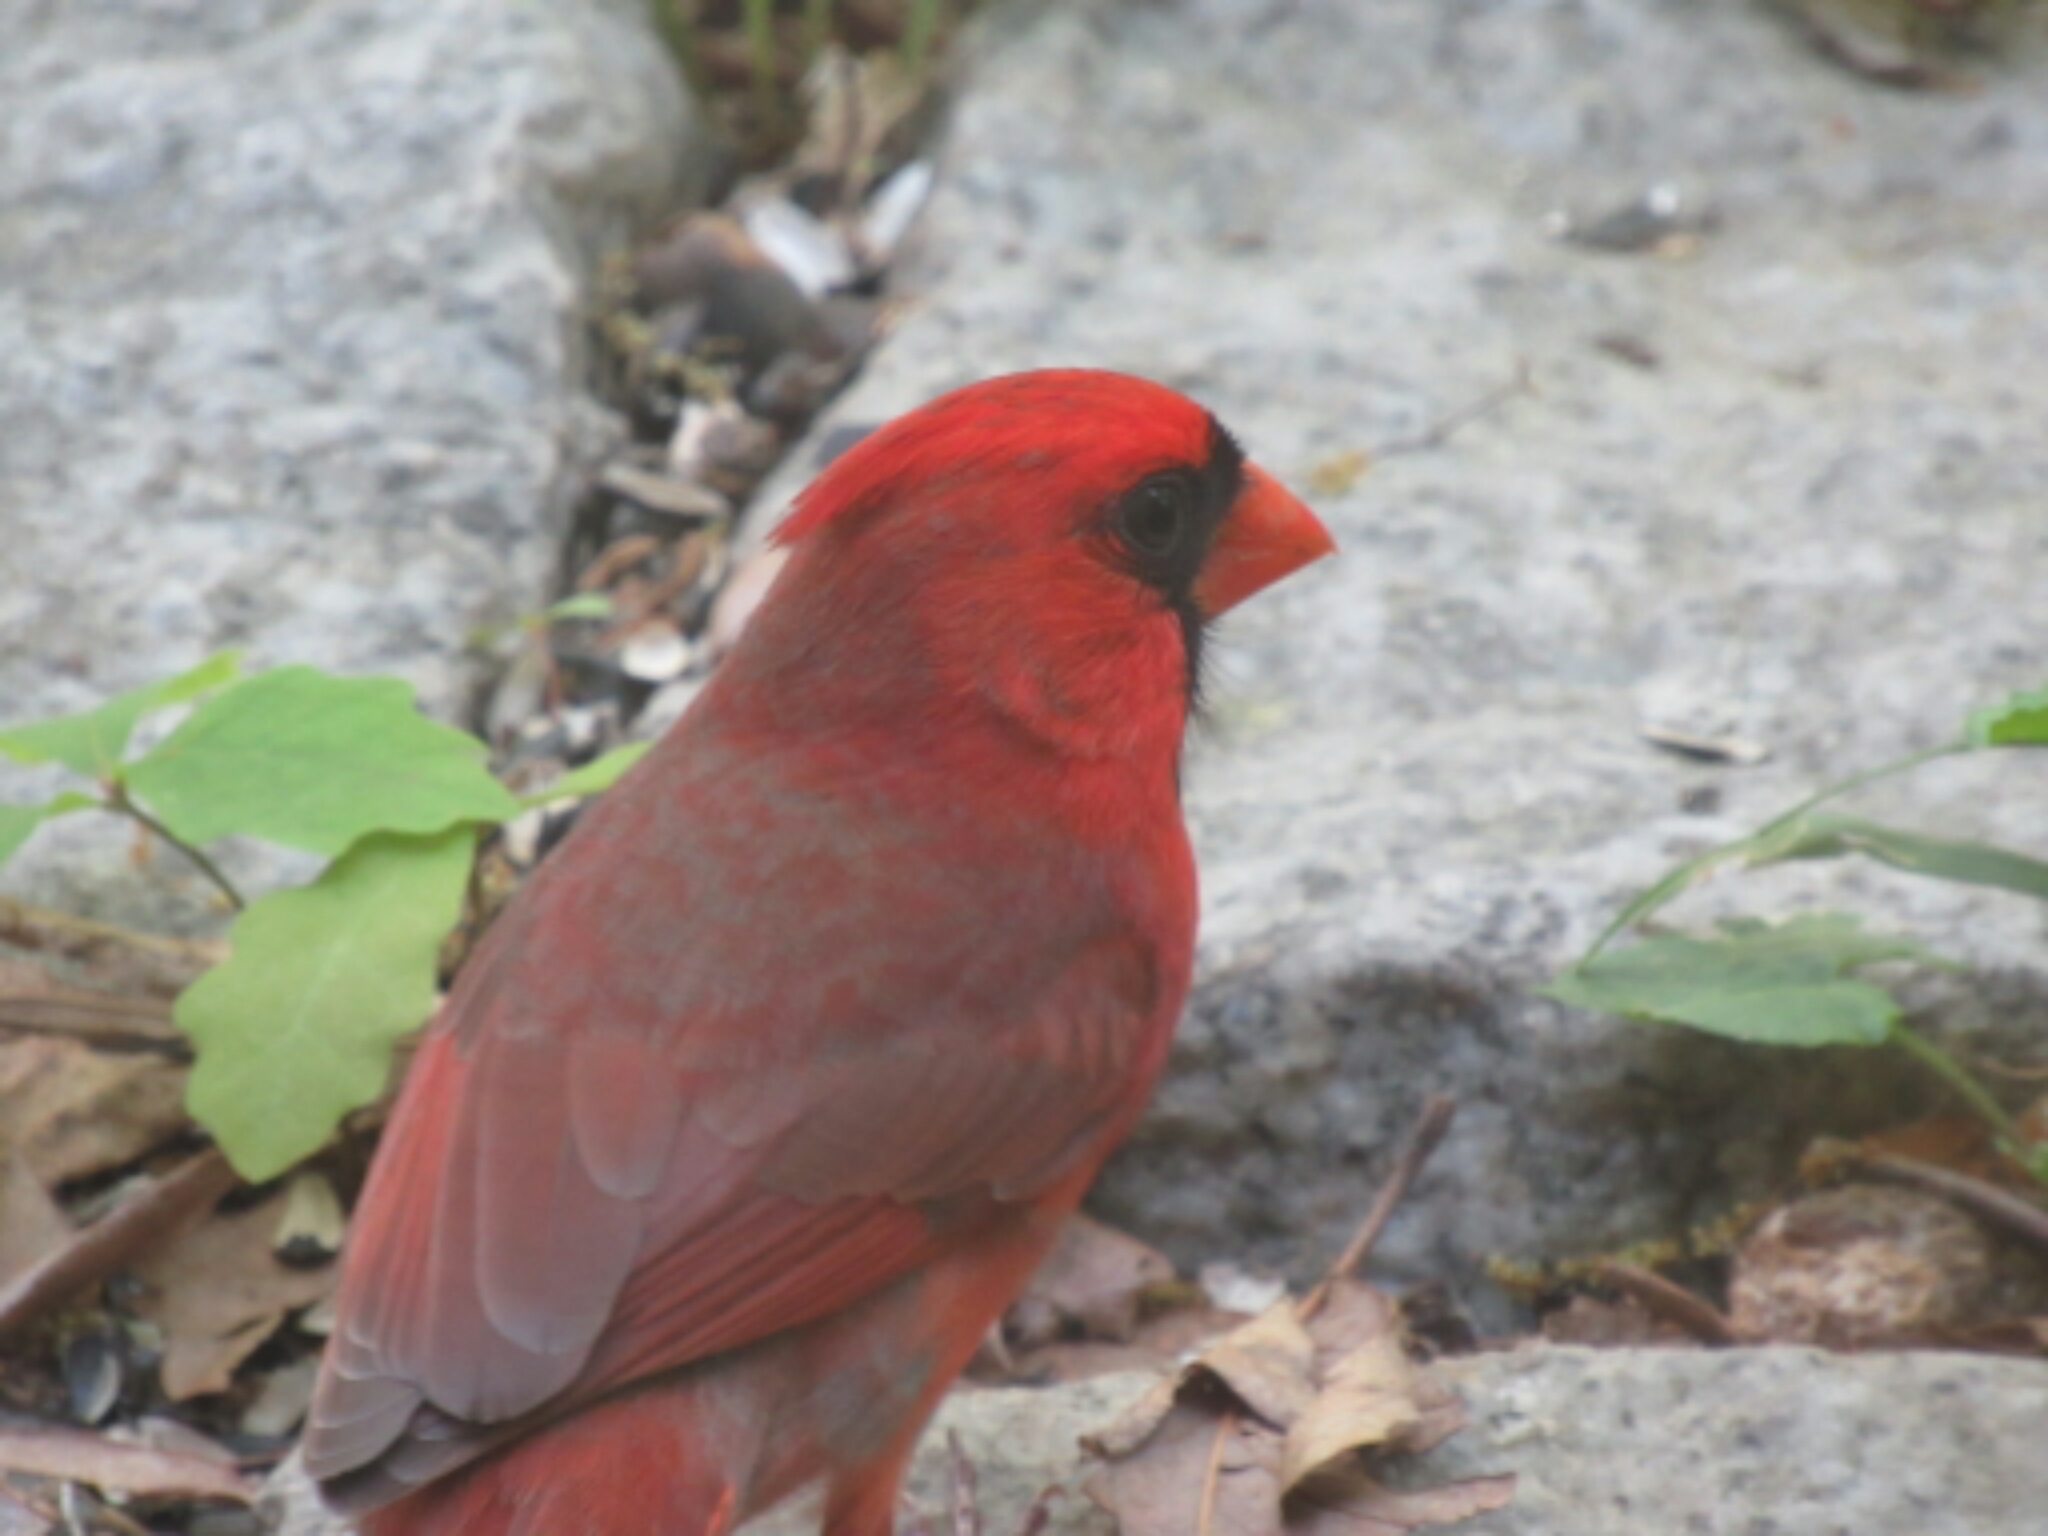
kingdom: Animalia
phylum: Chordata
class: Aves
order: Passeriformes
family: Cardinalidae
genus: Cardinalis
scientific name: Cardinalis cardinalis
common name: Northern cardinal
